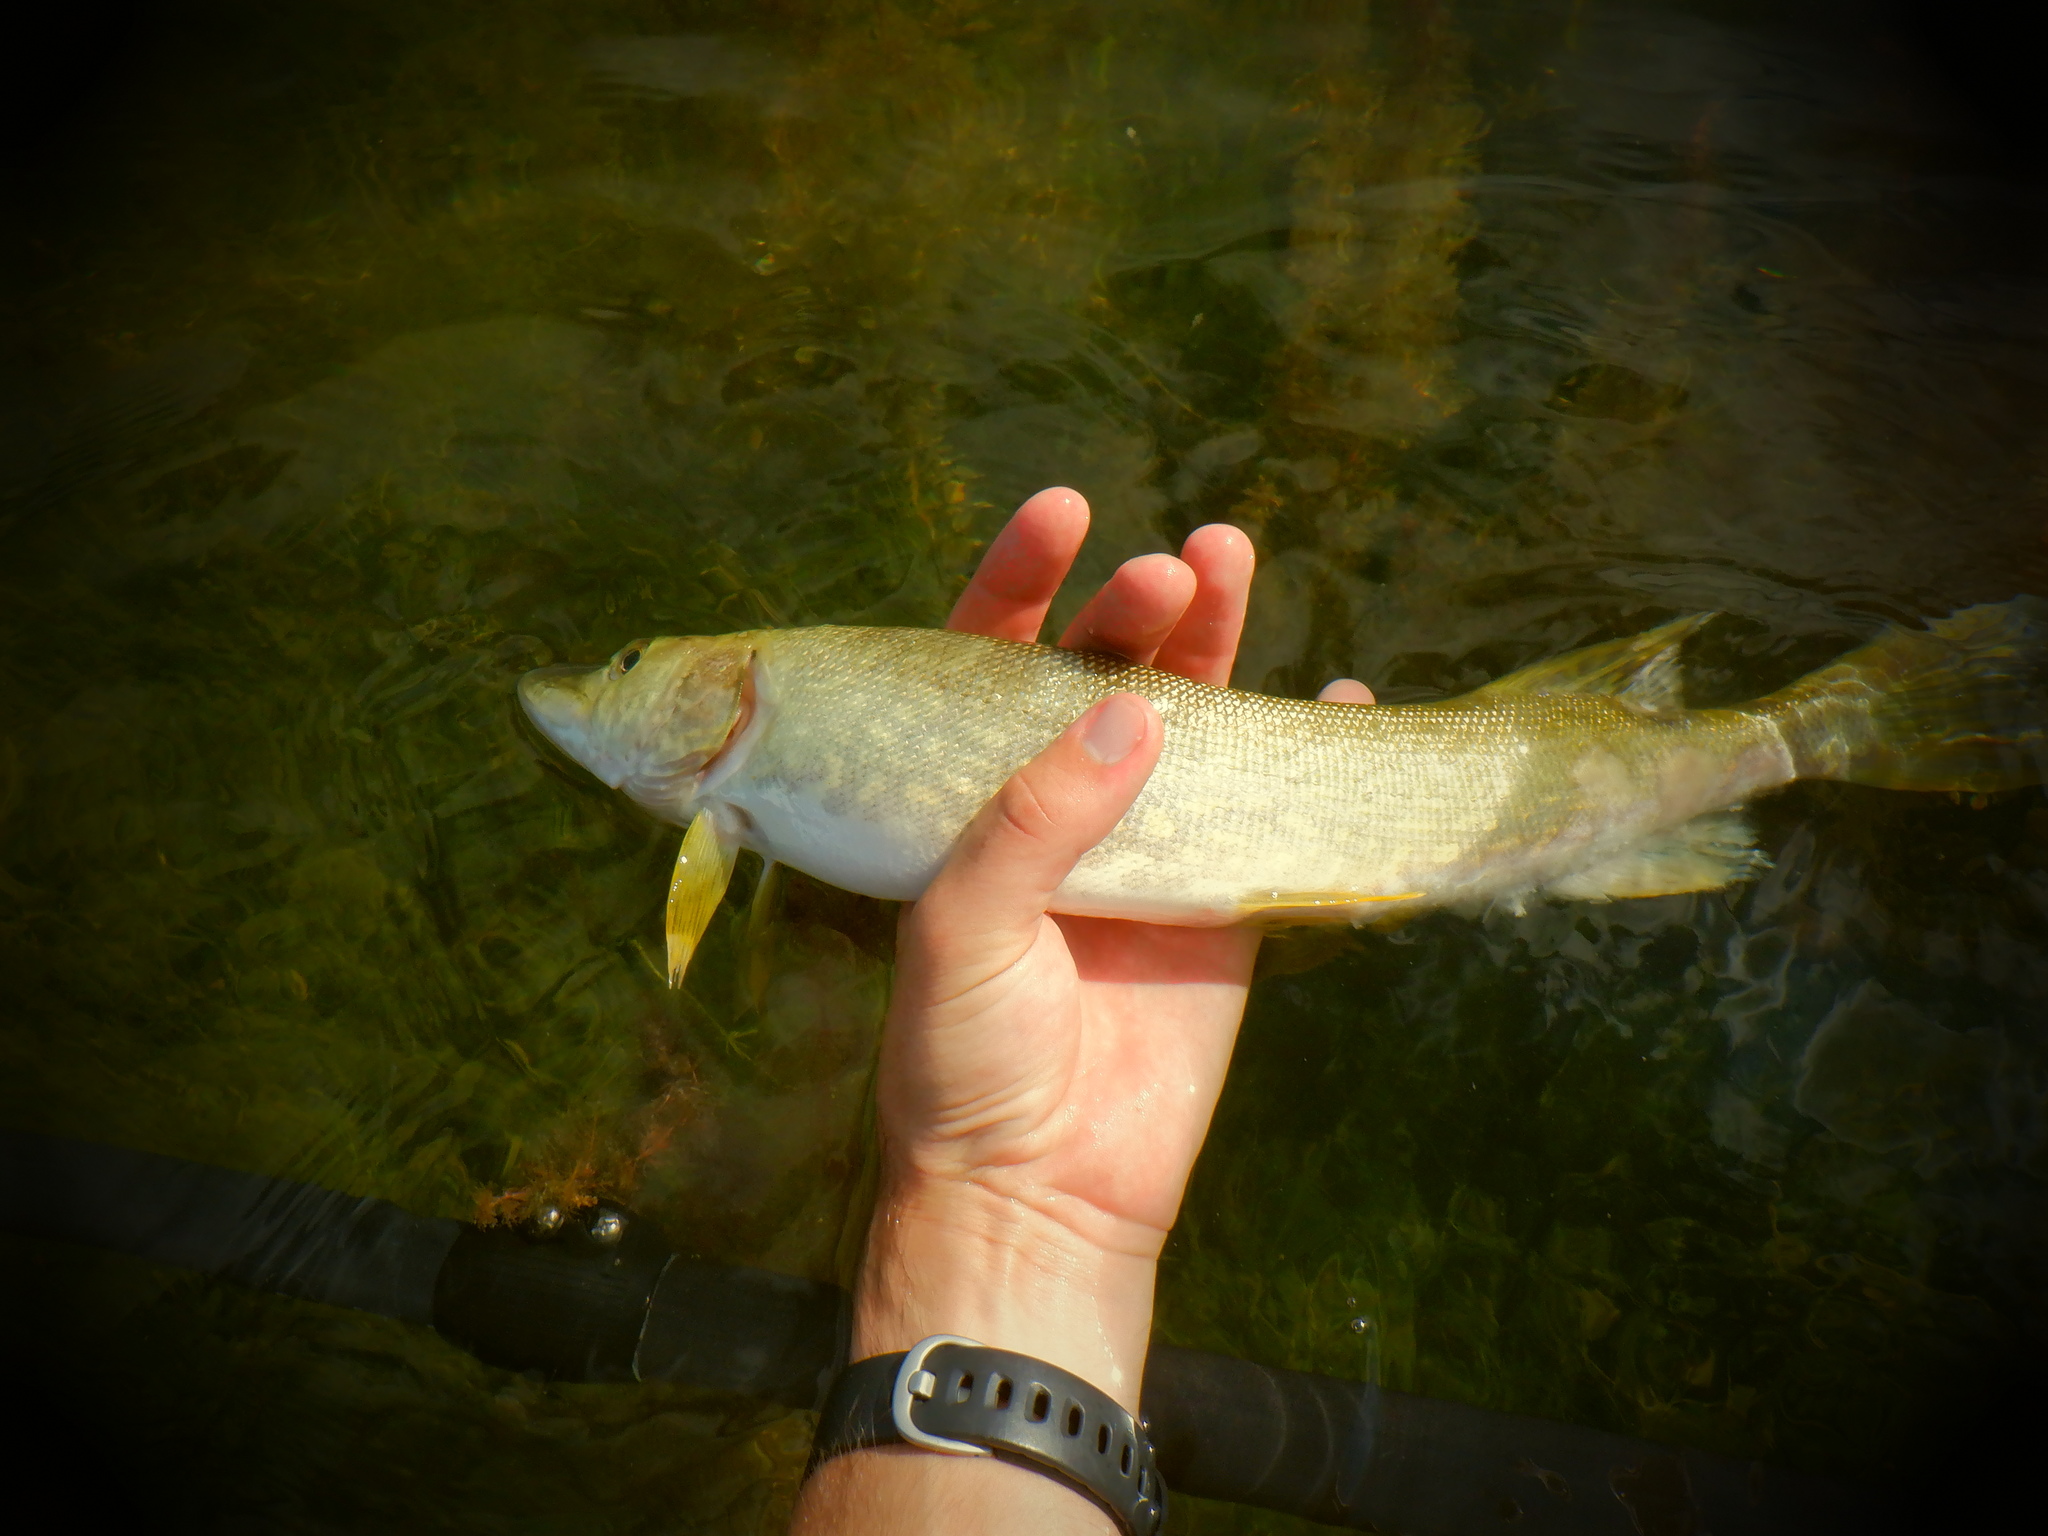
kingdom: Animalia
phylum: Chordata
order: Esociformes
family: Esocidae
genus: Esox
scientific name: Esox lucius
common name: Northern pike
